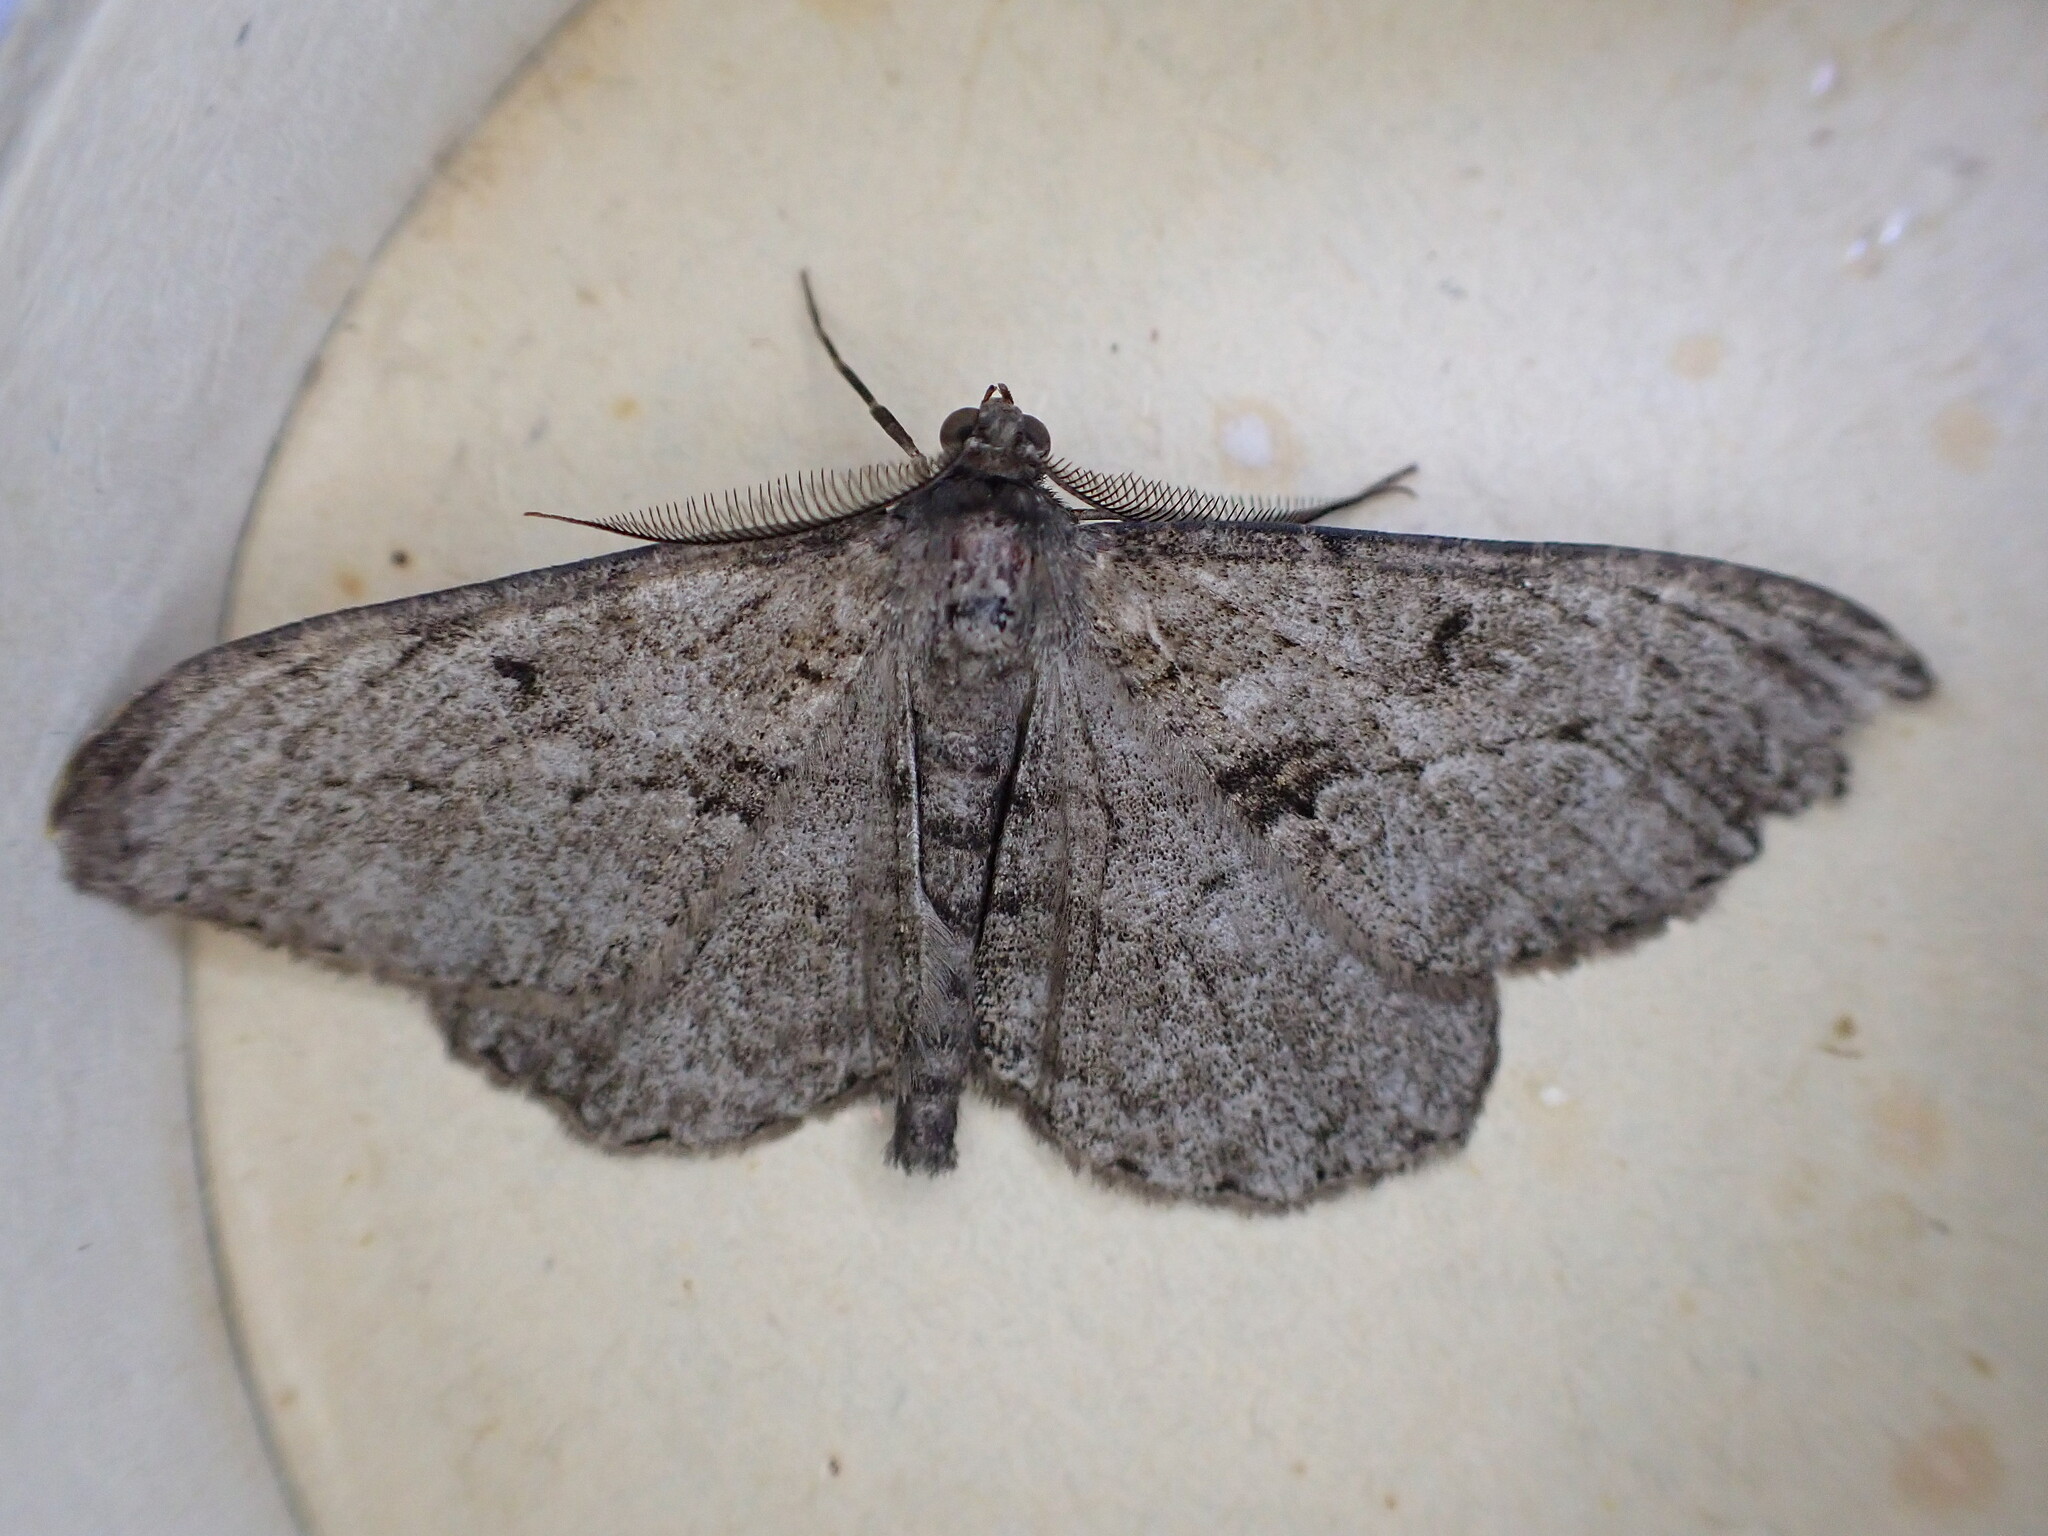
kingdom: Animalia
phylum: Arthropoda
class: Insecta
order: Lepidoptera
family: Geometridae
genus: Peribatodes
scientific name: Peribatodes rhomboidaria
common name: Willow beauty
